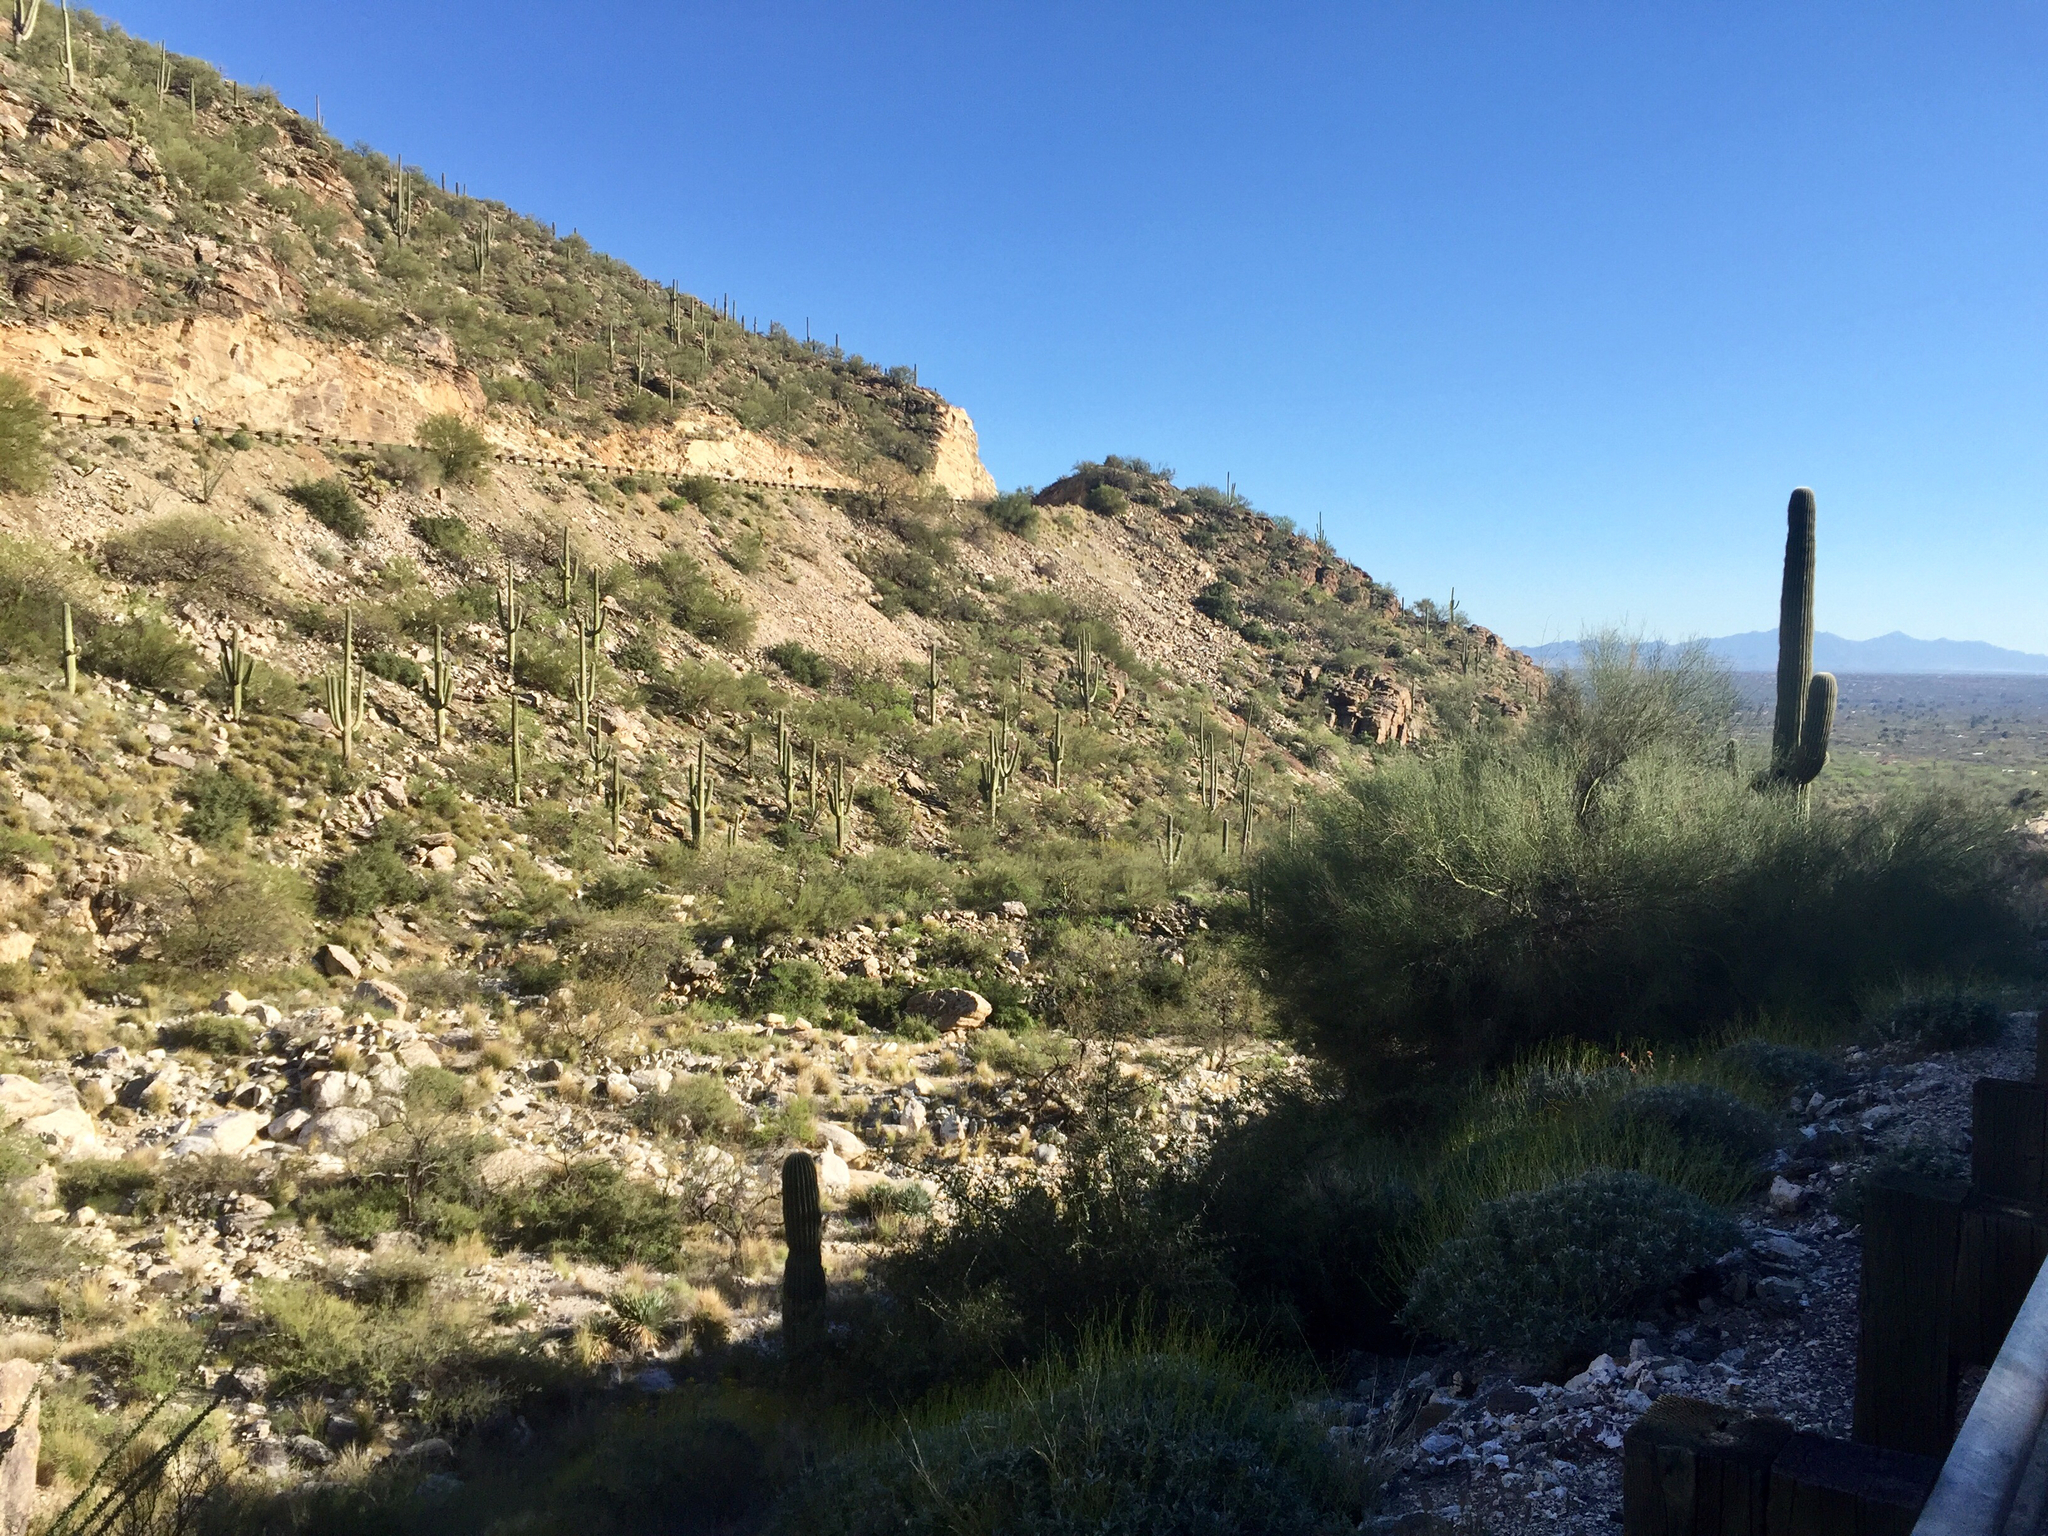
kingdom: Plantae
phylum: Tracheophyta
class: Magnoliopsida
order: Caryophyllales
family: Cactaceae
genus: Carnegiea
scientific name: Carnegiea gigantea
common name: Saguaro
